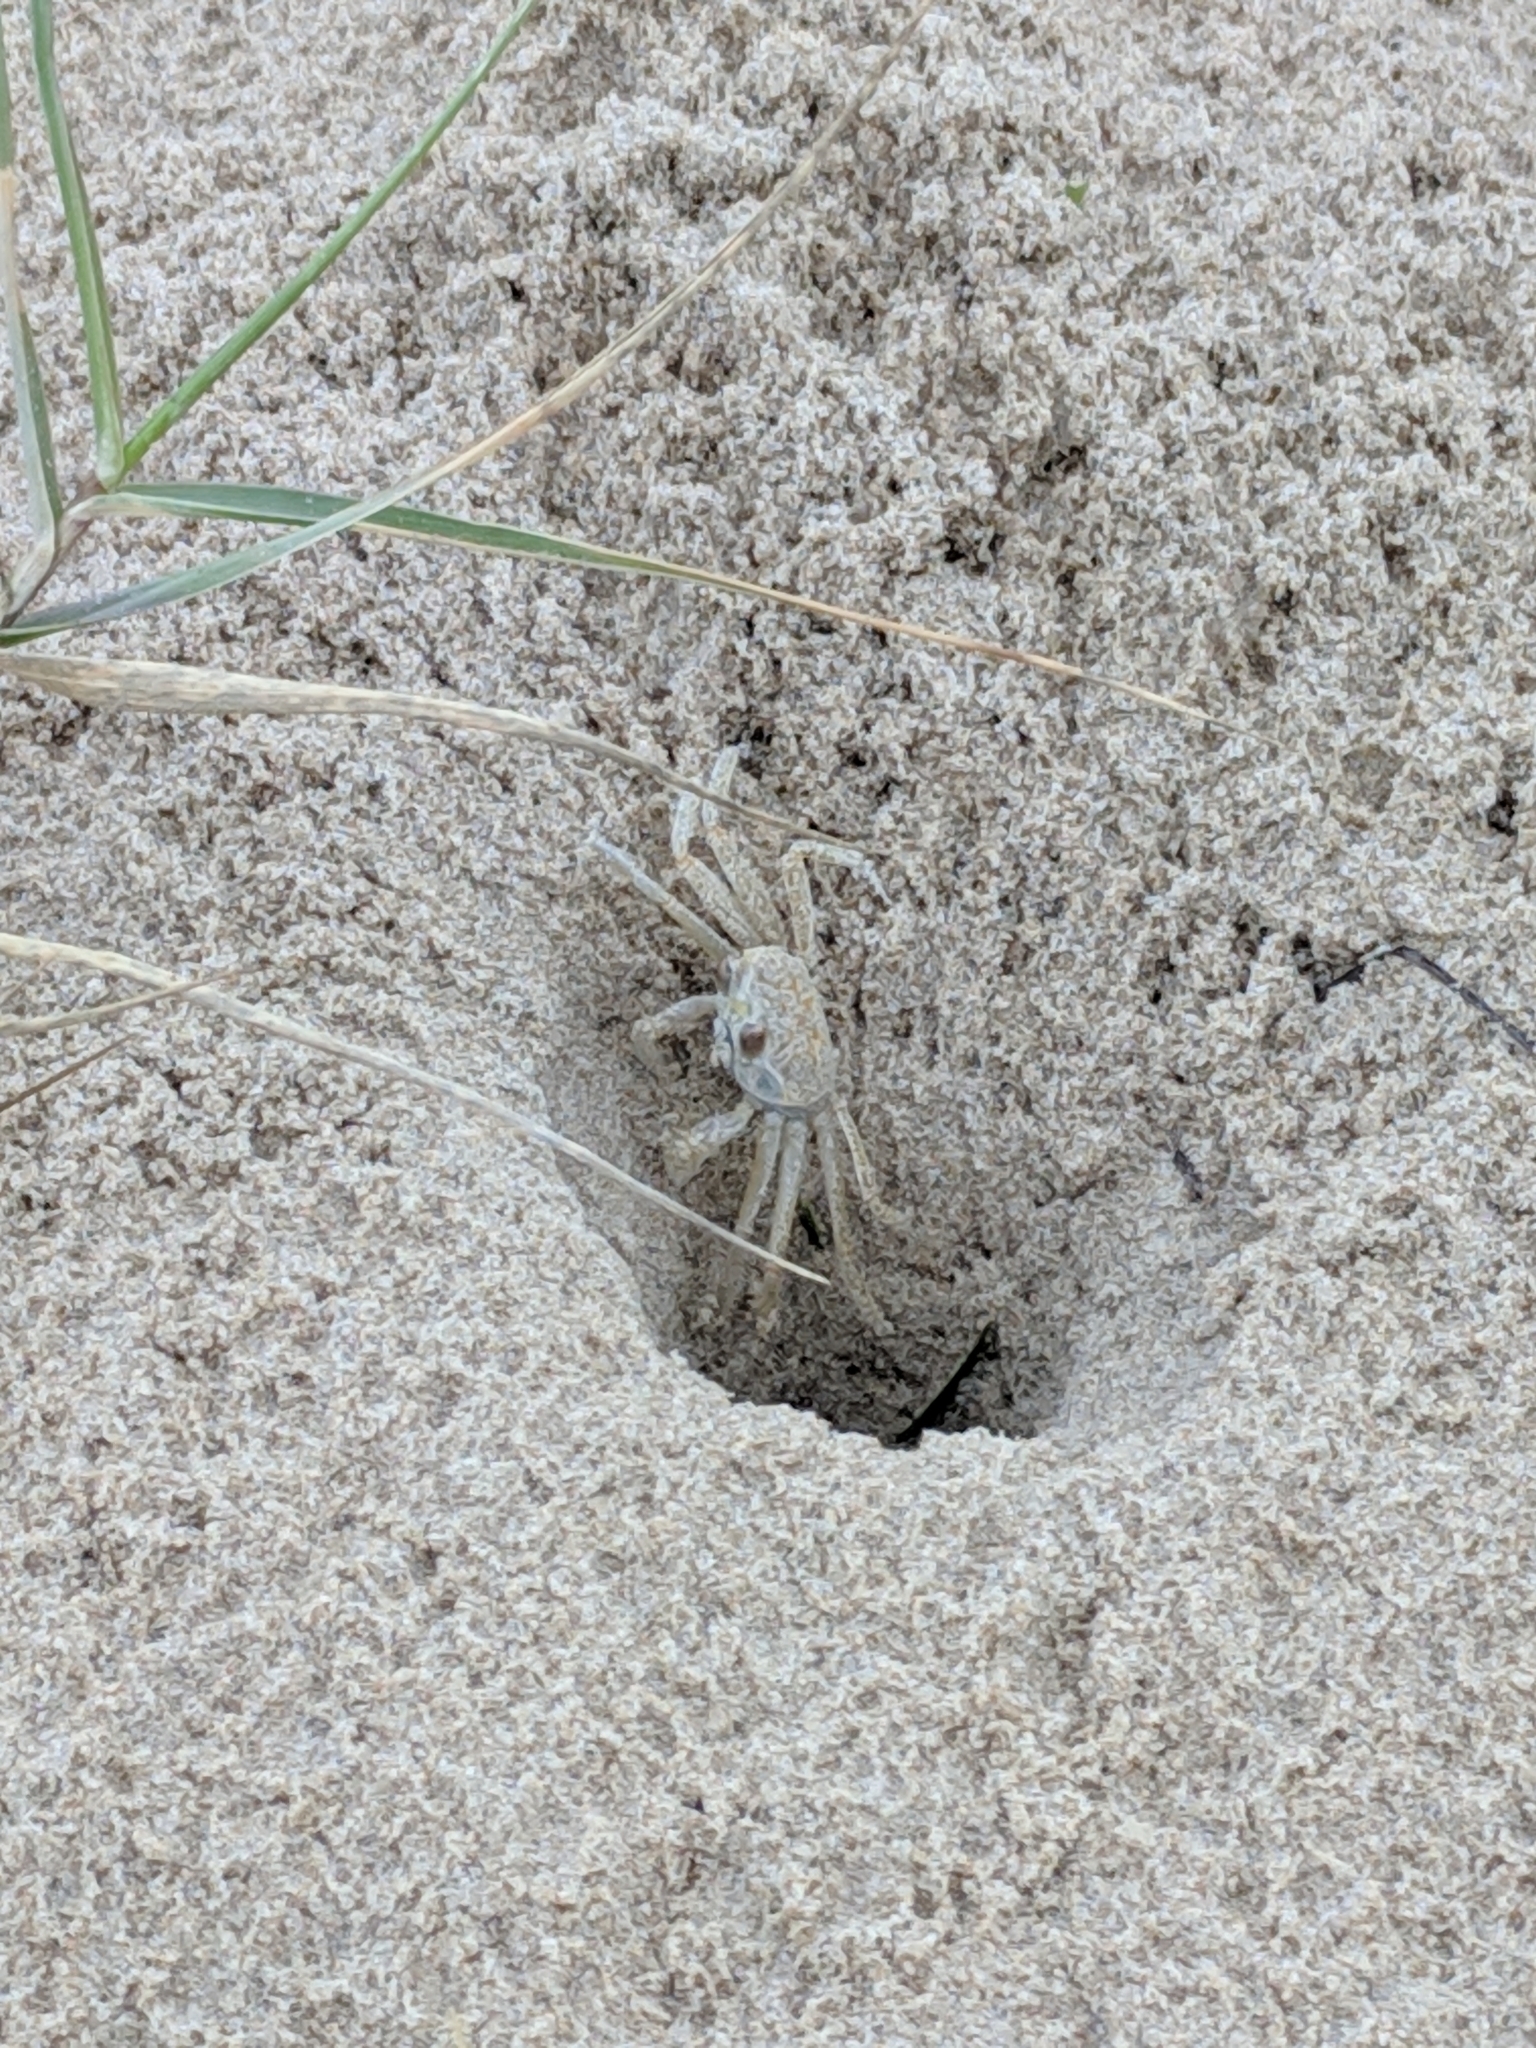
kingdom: Animalia
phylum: Arthropoda
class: Malacostraca
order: Decapoda
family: Ocypodidae
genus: Ocypode
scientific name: Ocypode quadrata
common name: Ghost crab
